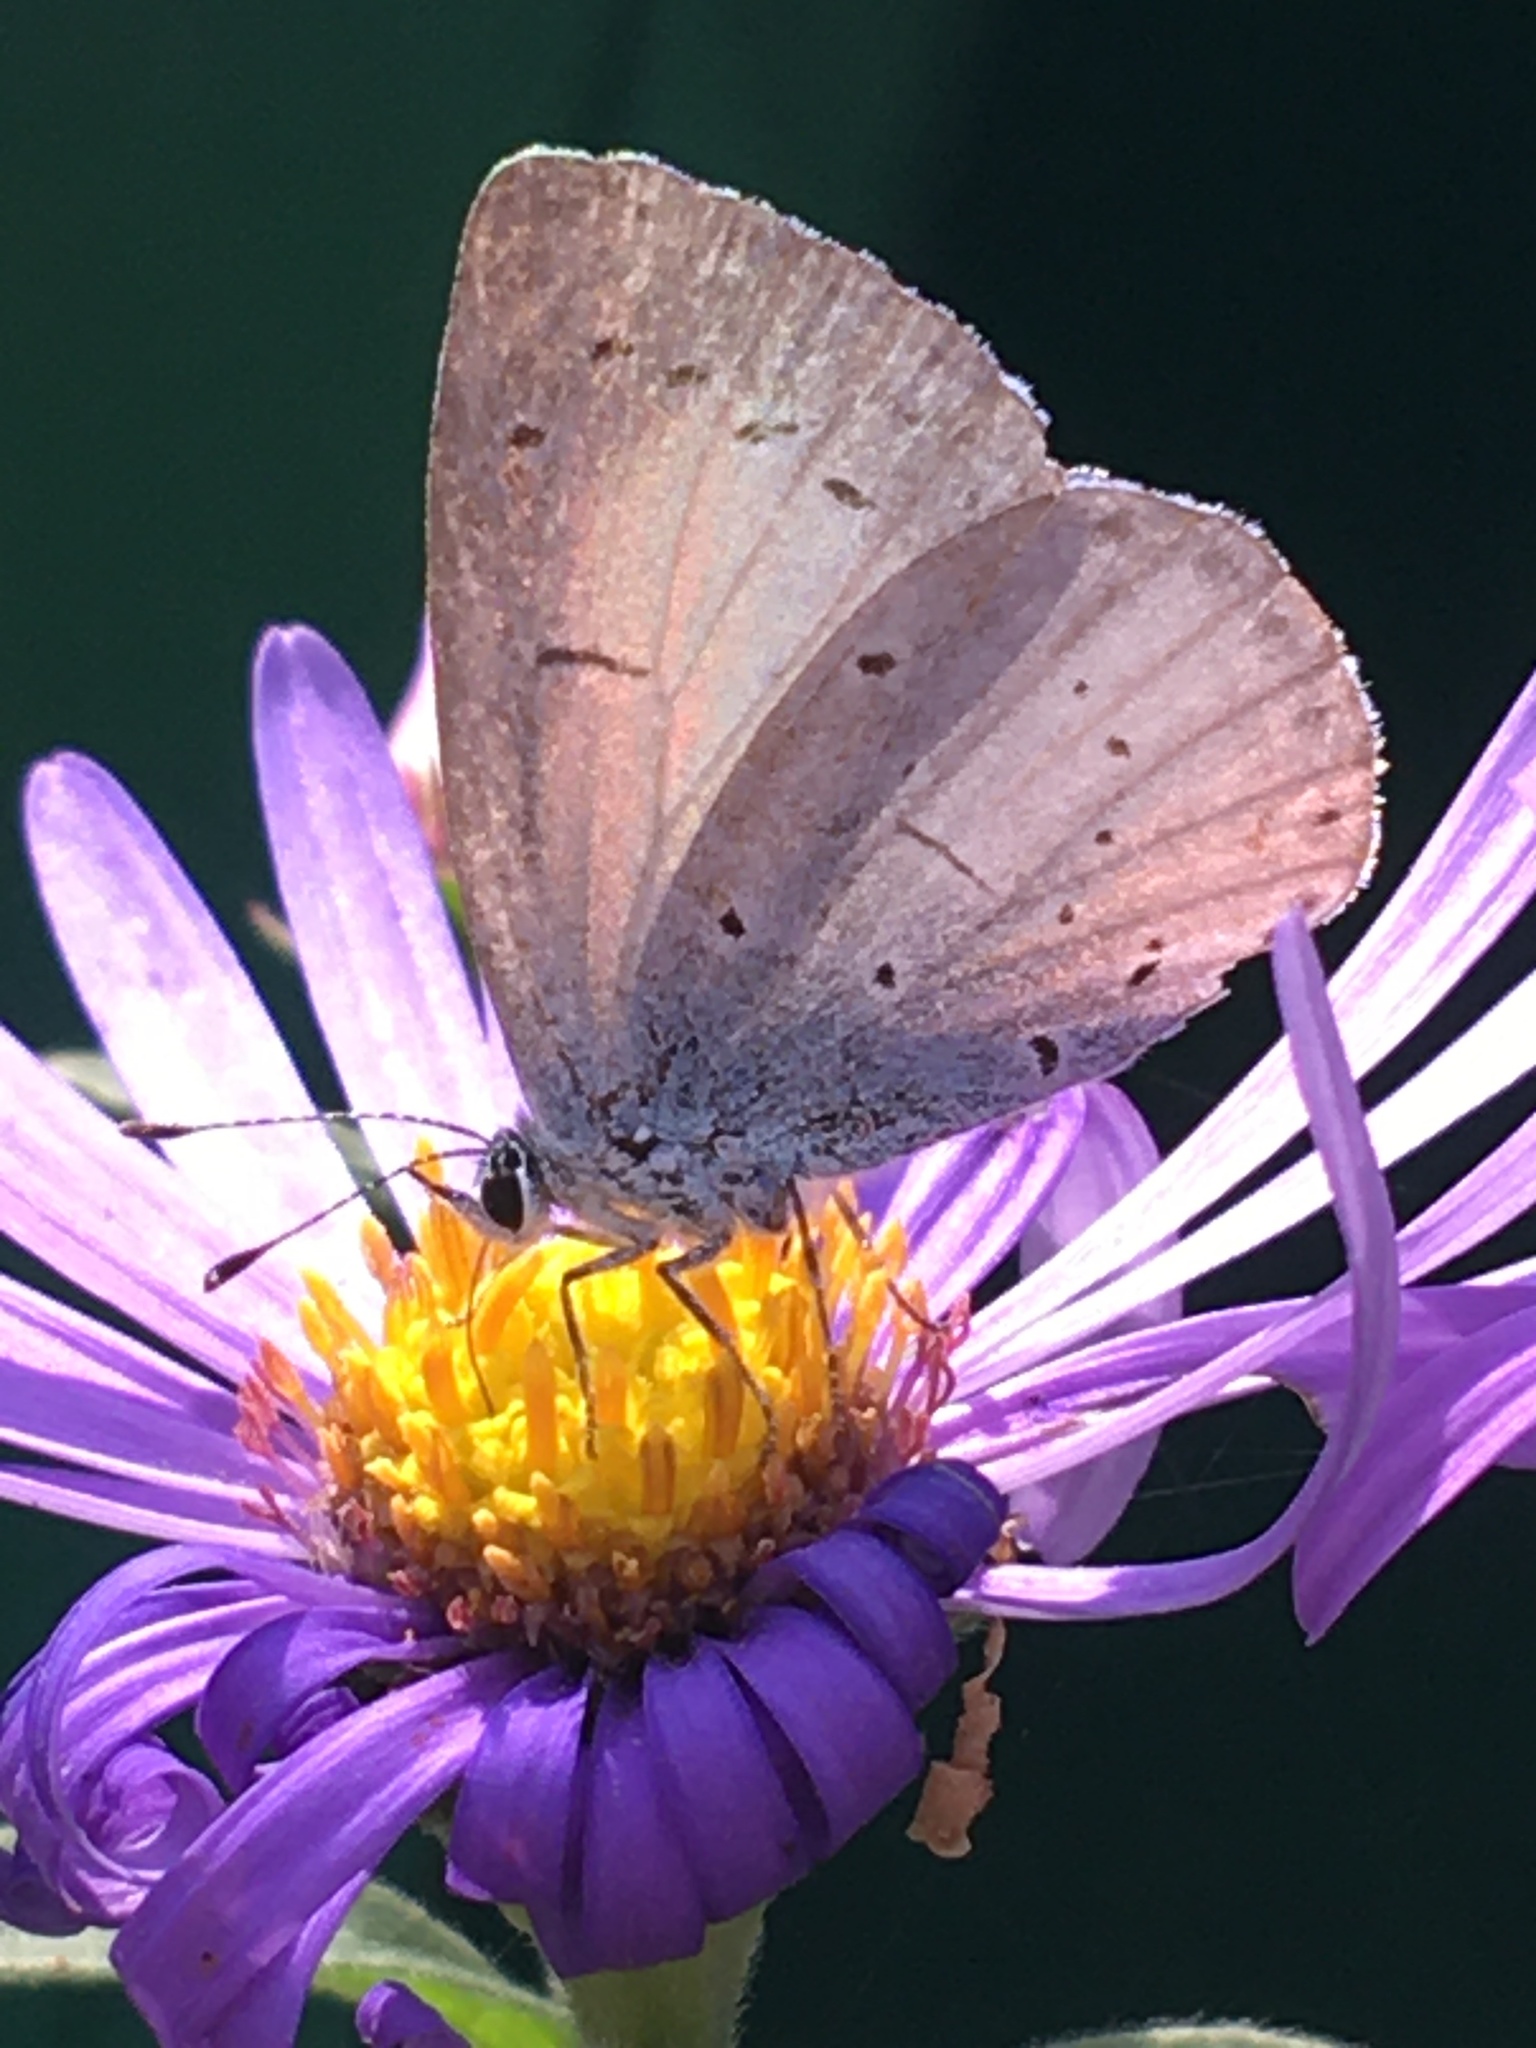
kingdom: Animalia
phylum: Arthropoda
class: Insecta
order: Lepidoptera
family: Lycaenidae
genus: Celastrina
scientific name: Celastrina argiolus
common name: Holly blue
